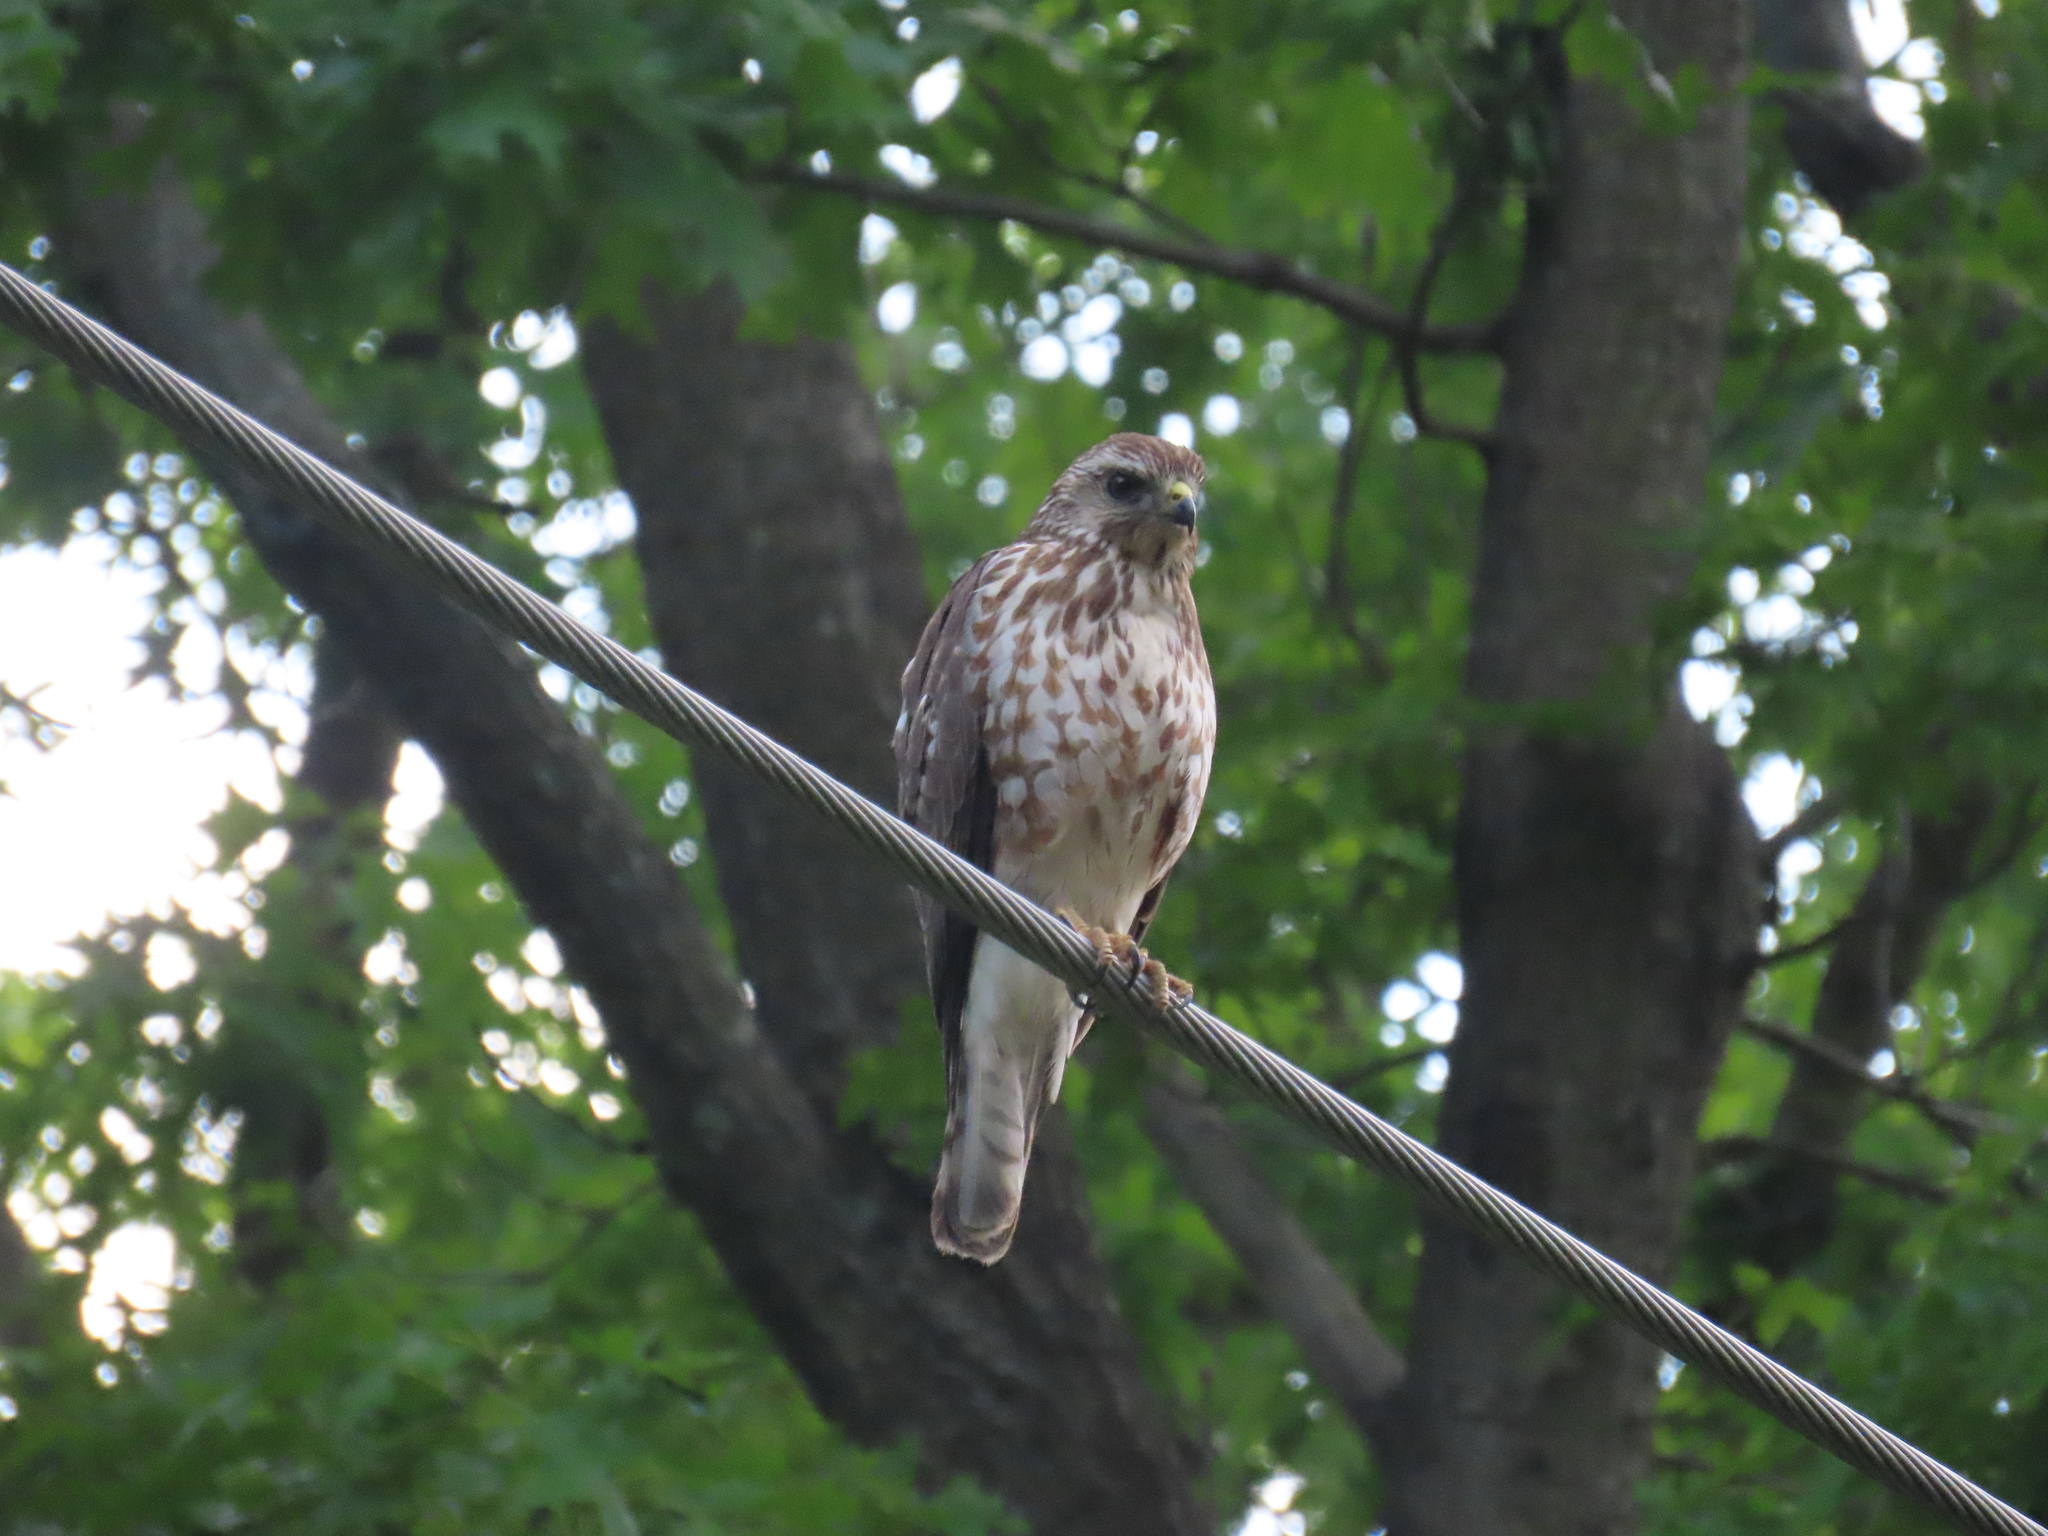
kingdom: Animalia
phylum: Chordata
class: Aves
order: Accipitriformes
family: Accipitridae
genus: Buteo
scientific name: Buteo platypterus
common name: Broad-winged hawk
